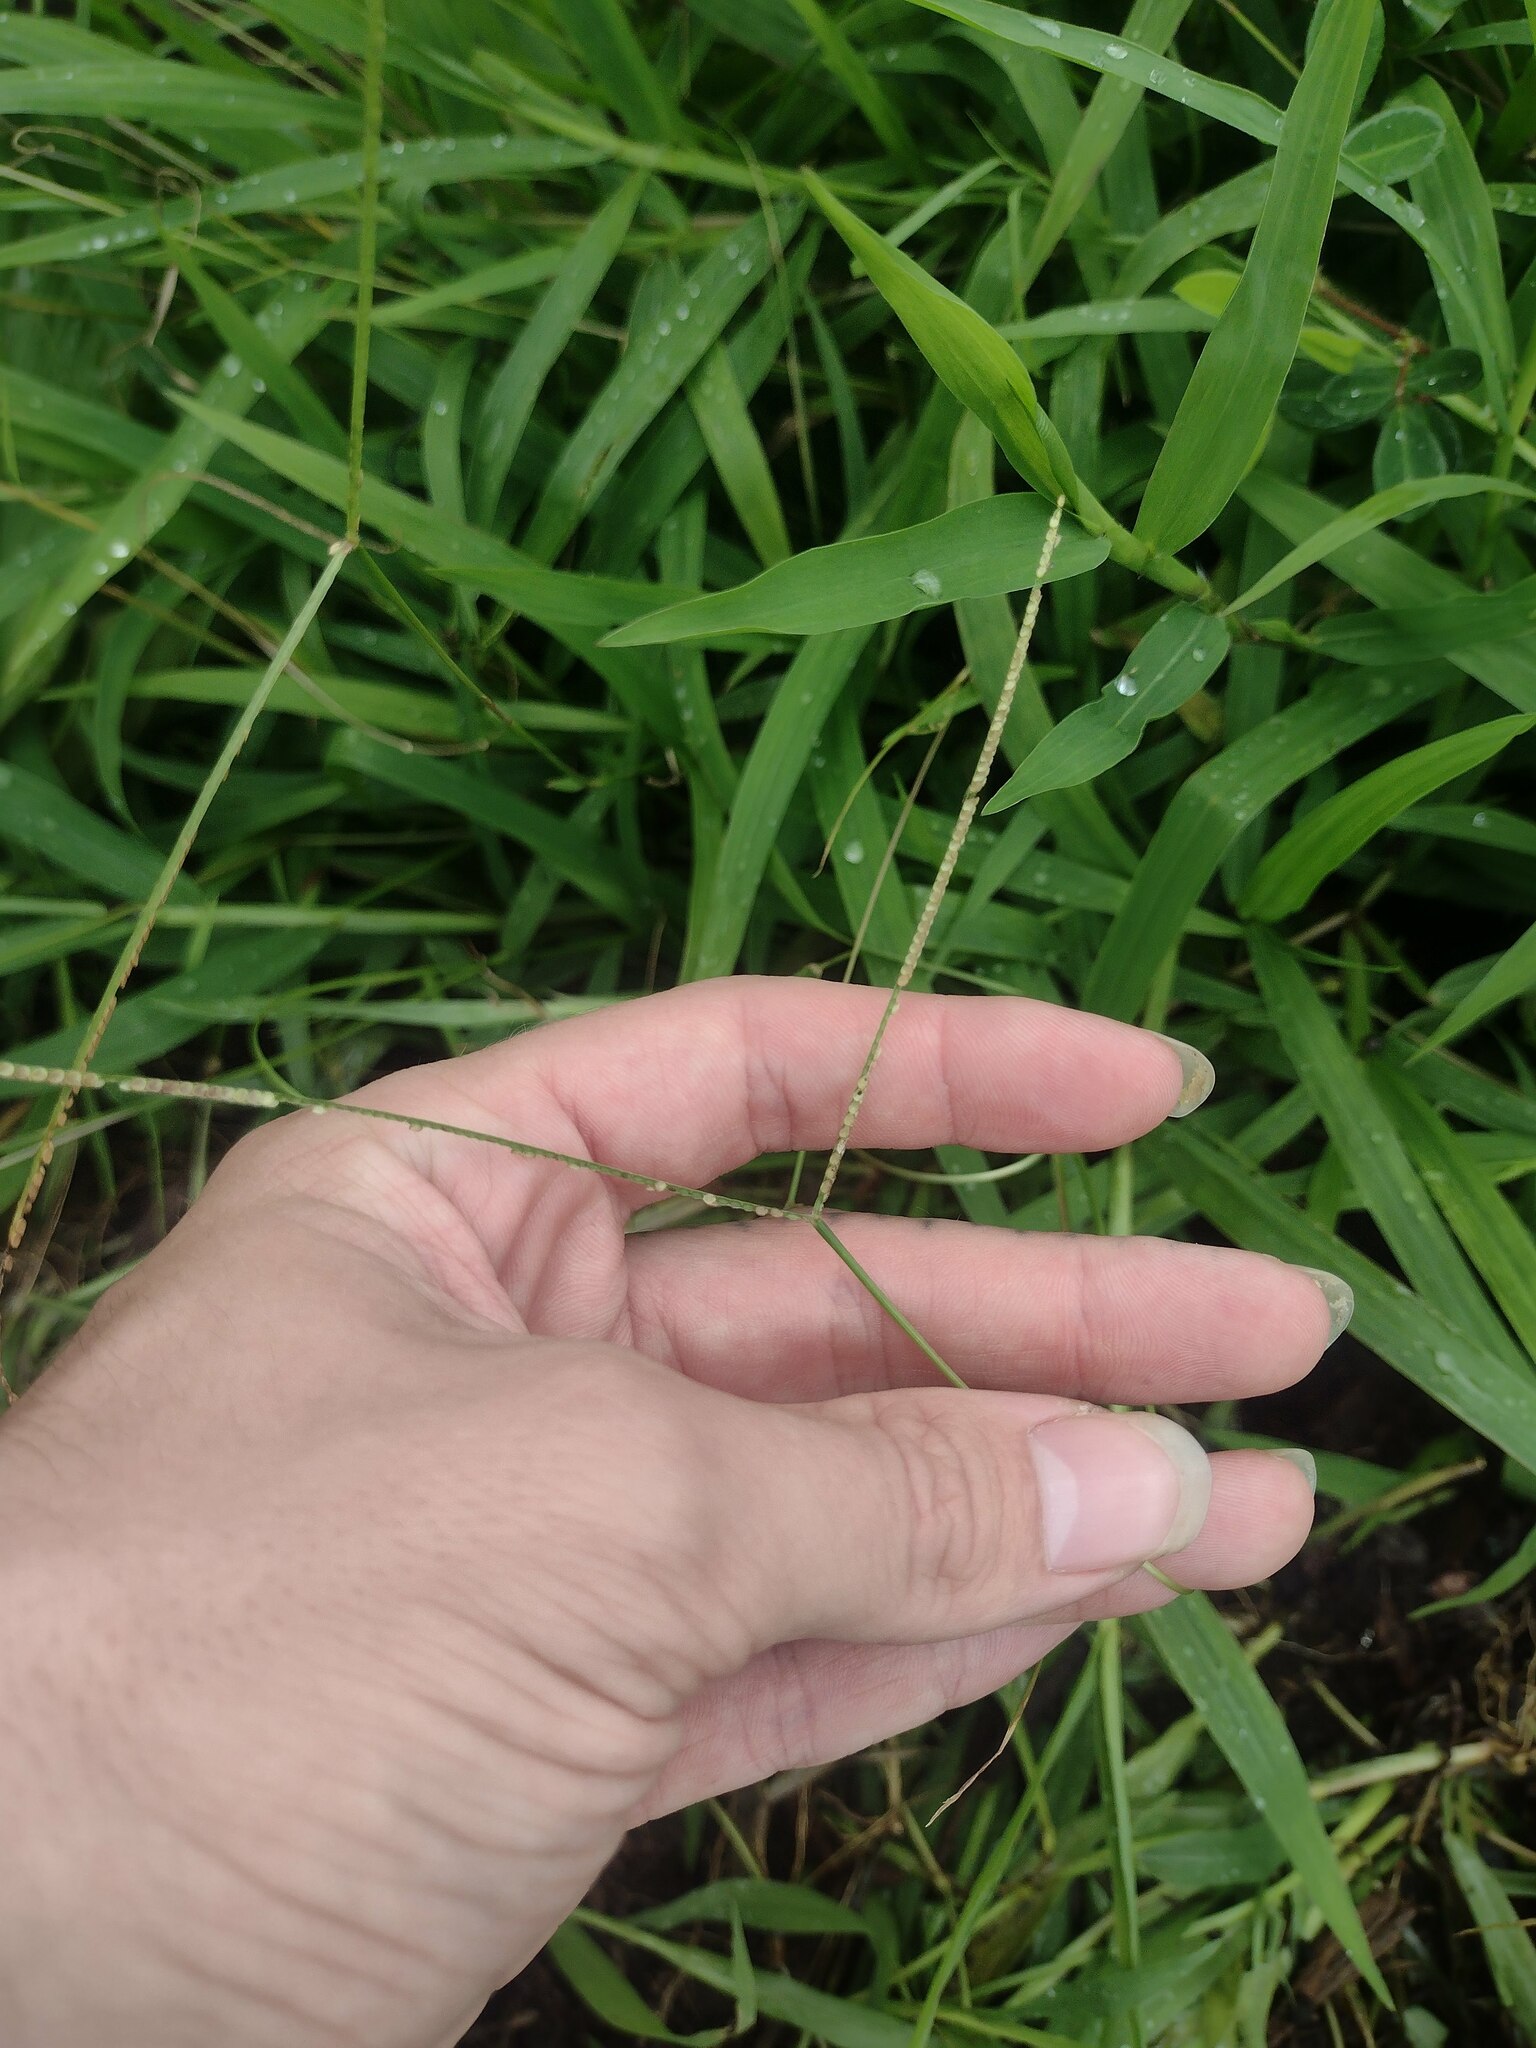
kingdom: Plantae
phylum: Tracheophyta
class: Liliopsida
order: Poales
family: Poaceae
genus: Paspalum
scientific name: Paspalum conjugatum
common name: Hilograss
